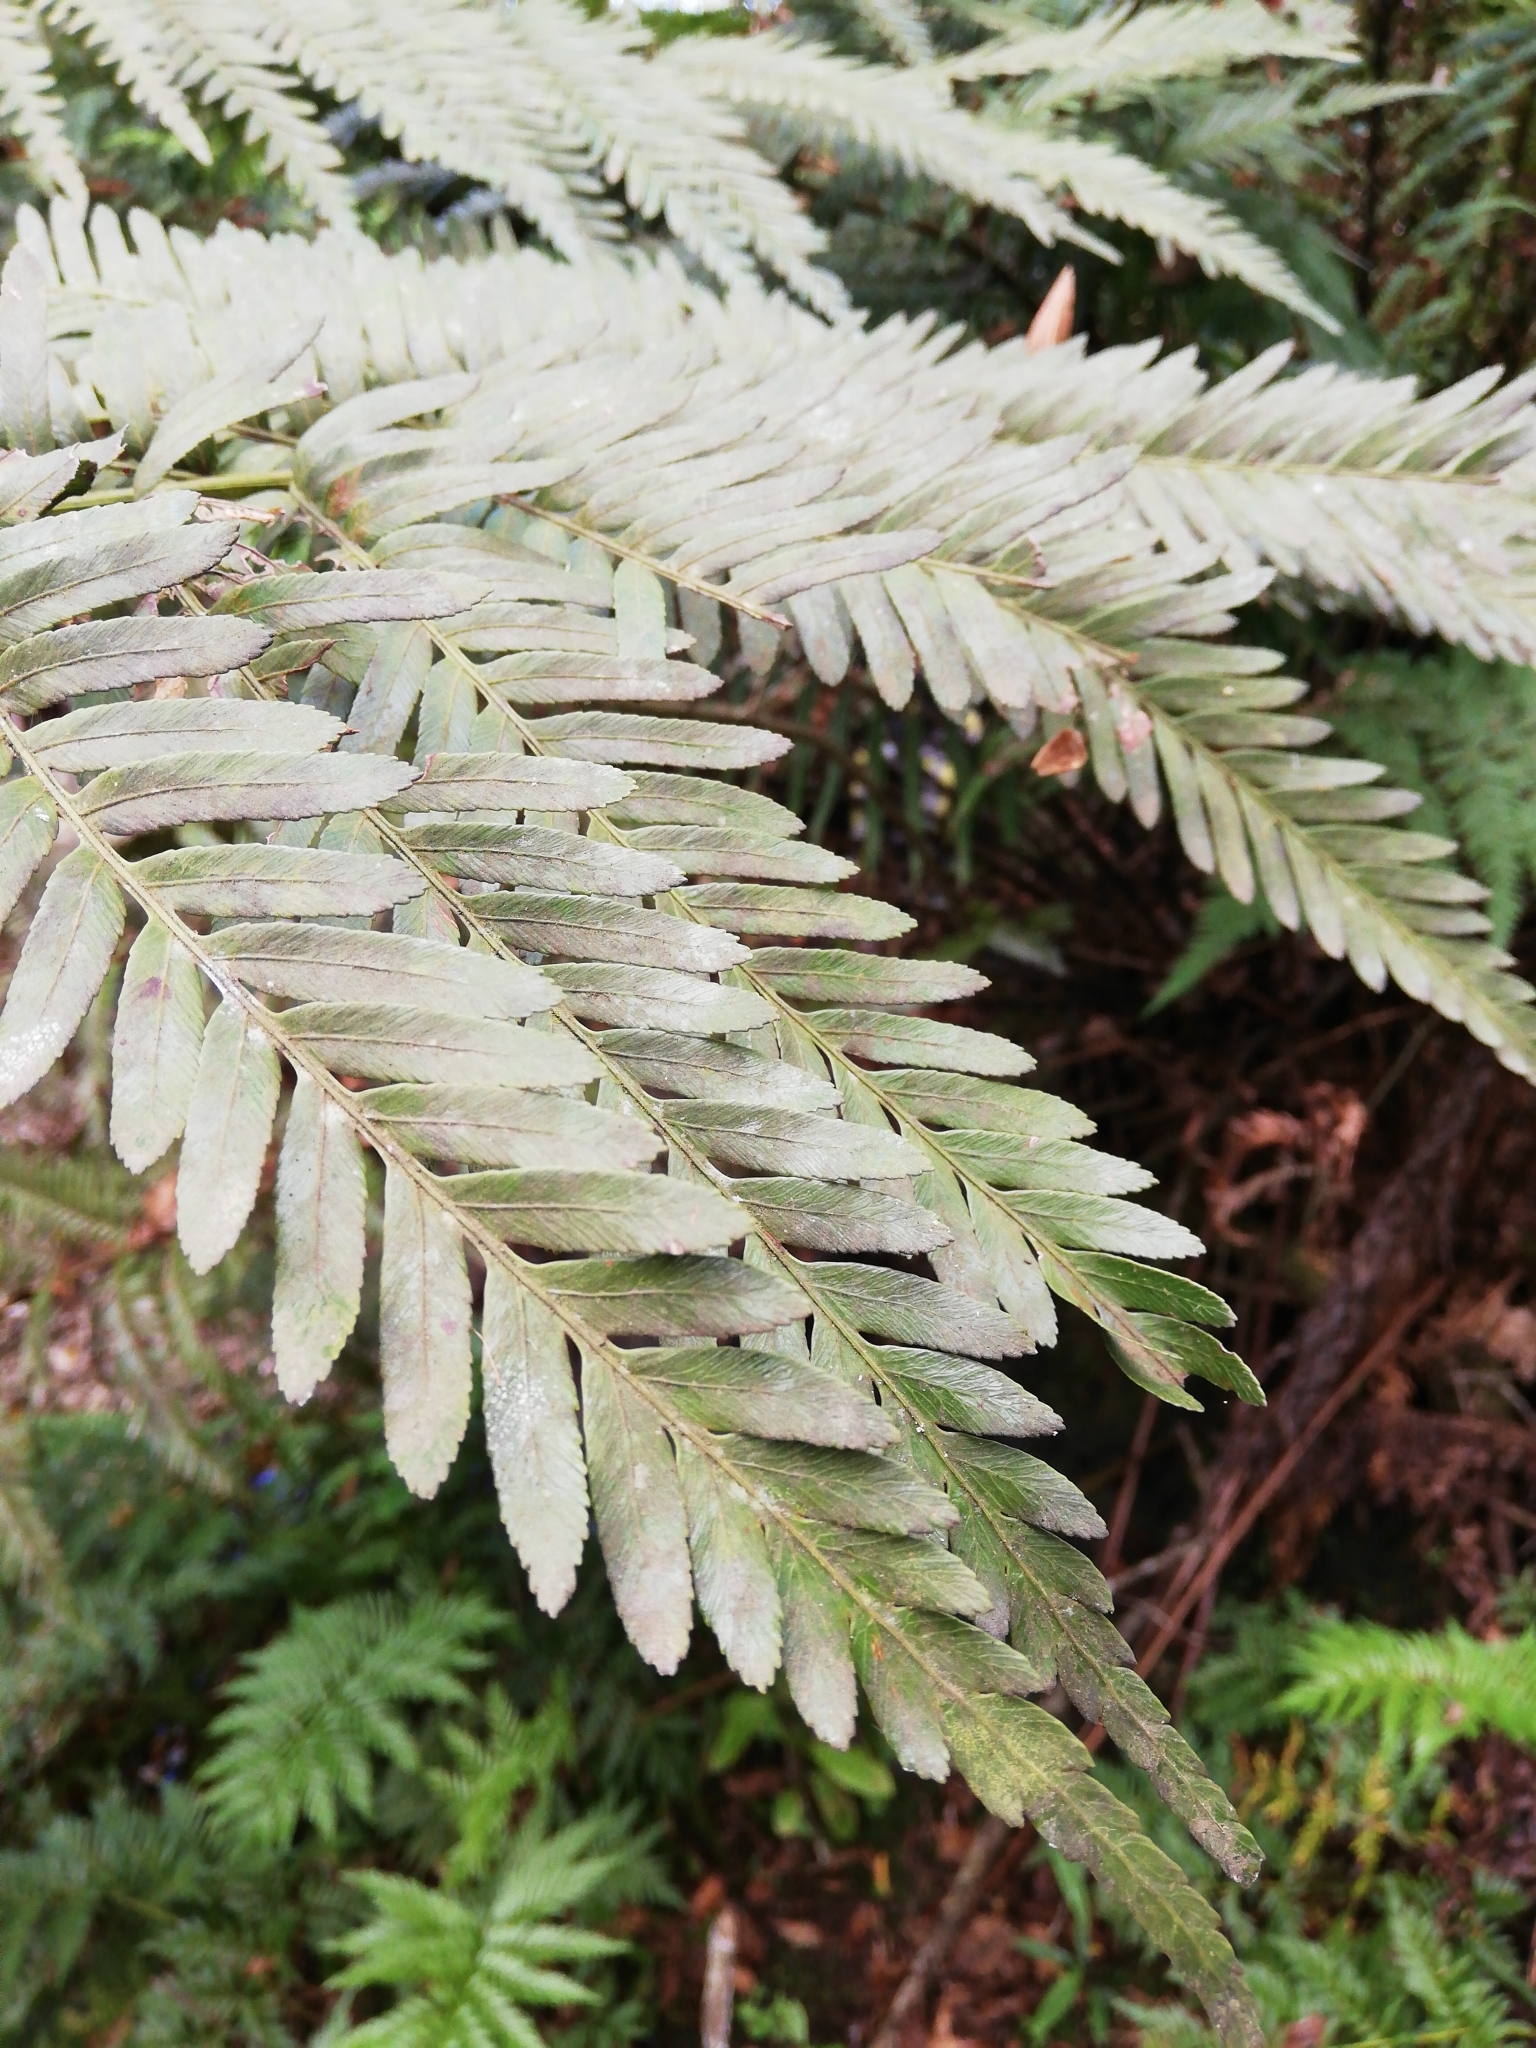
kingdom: Plantae
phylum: Tracheophyta
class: Polypodiopsida
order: Osmundales
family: Osmundaceae
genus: Todea
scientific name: Todea barbara
